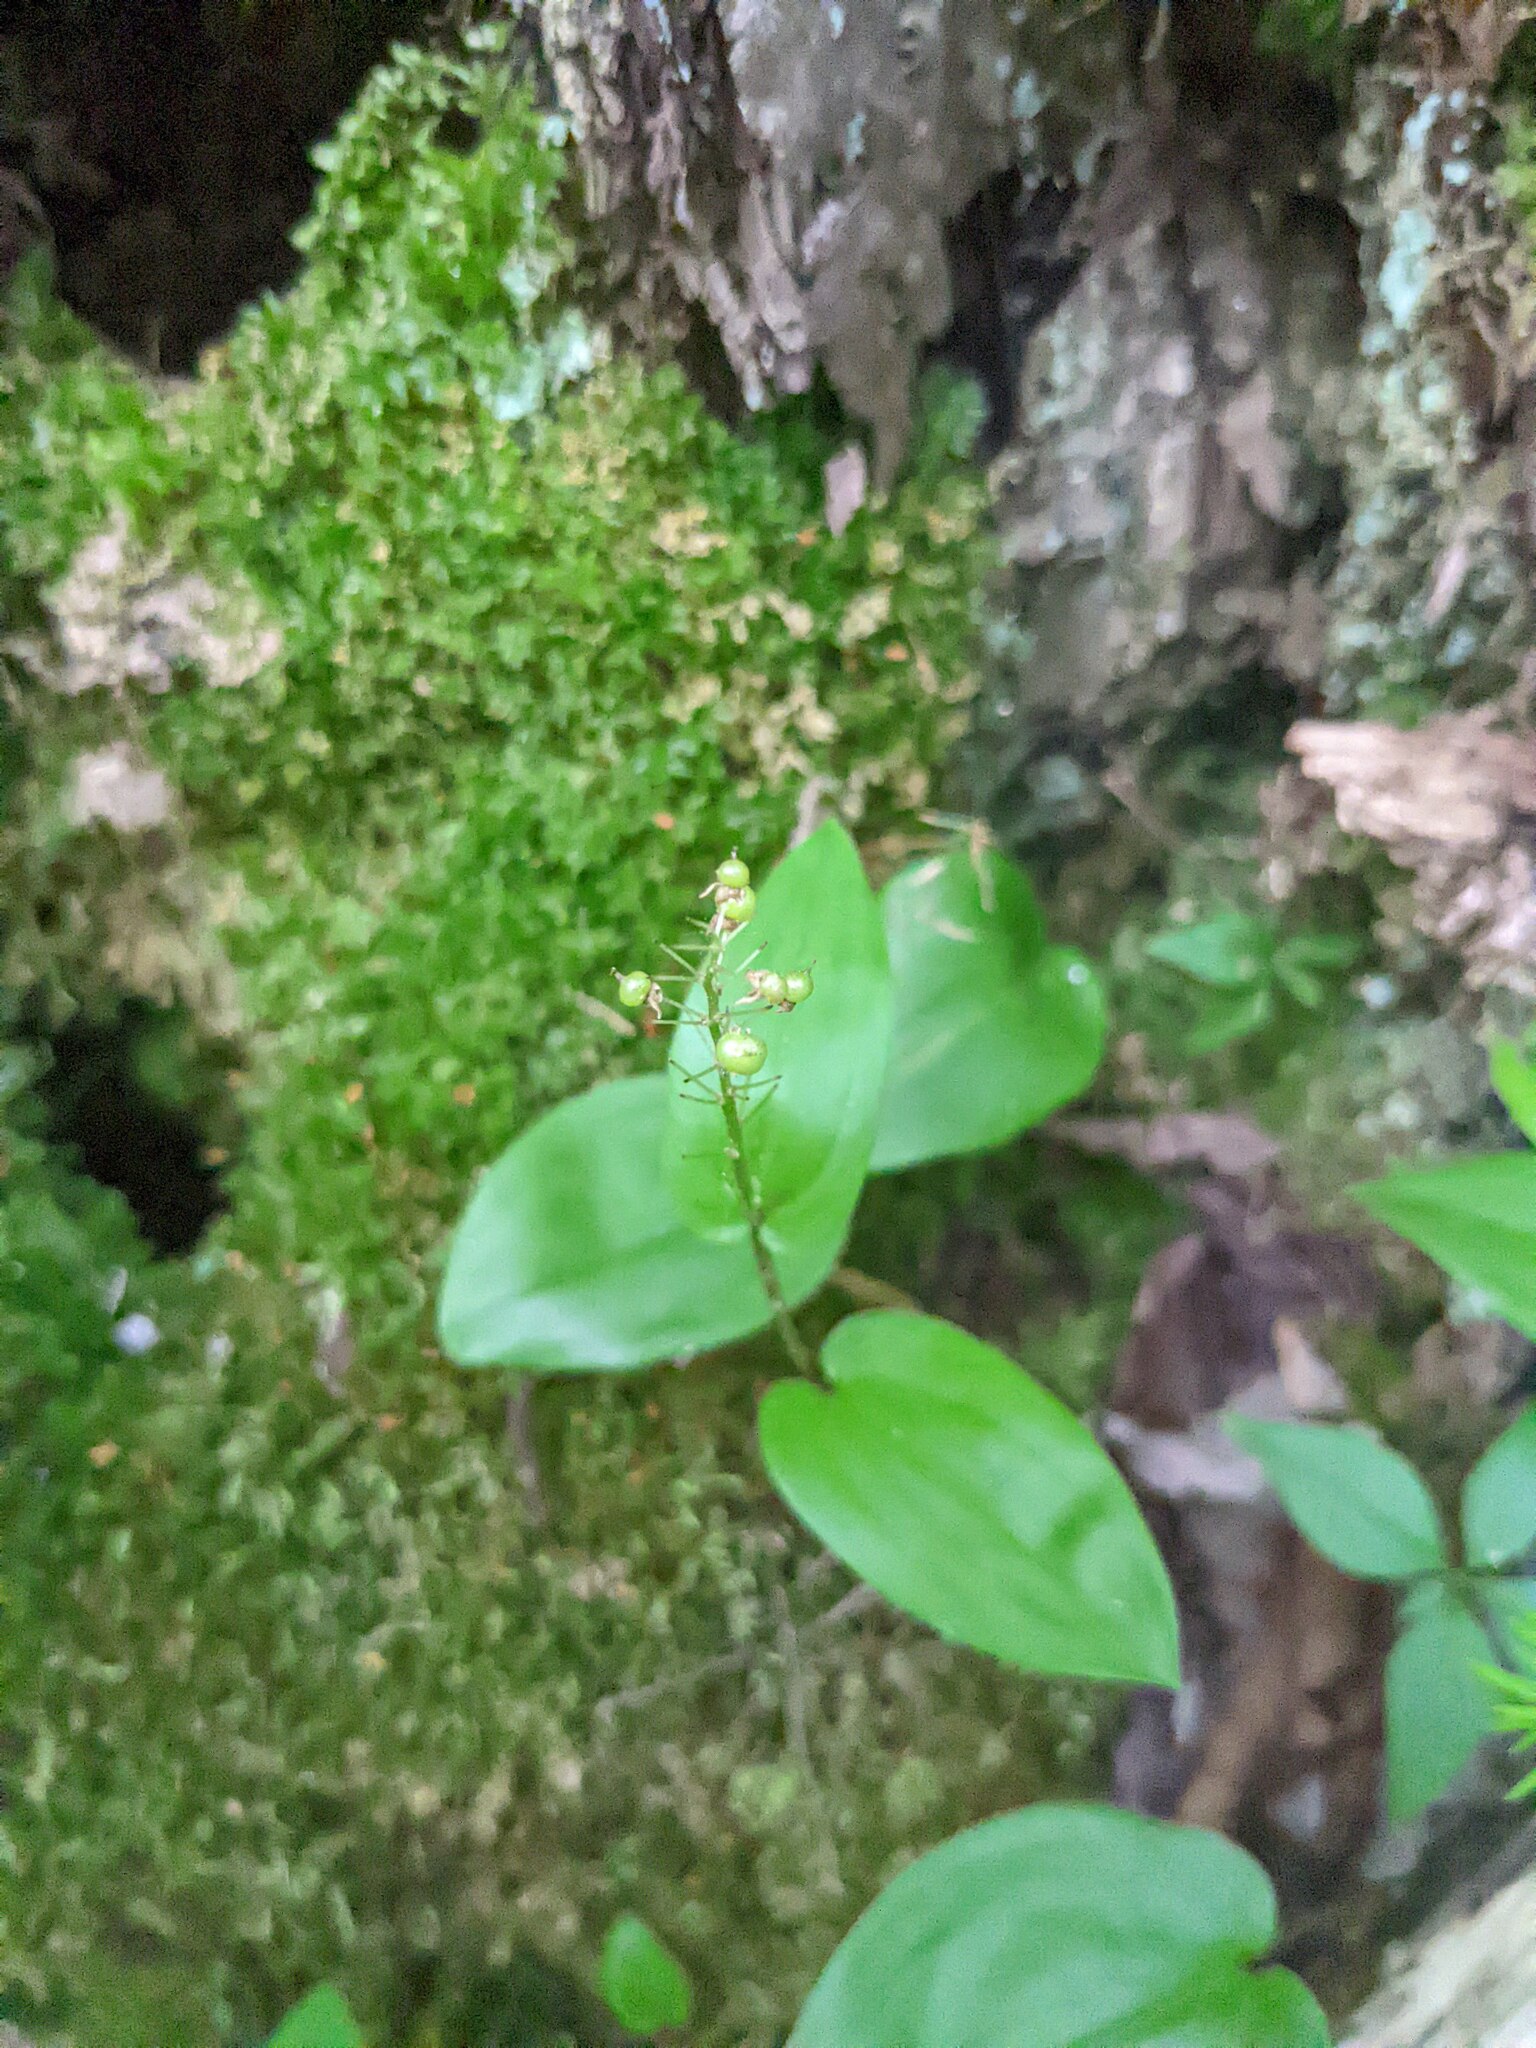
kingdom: Plantae
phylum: Tracheophyta
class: Liliopsida
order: Asparagales
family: Asparagaceae
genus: Maianthemum
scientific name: Maianthemum canadense
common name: False lily-of-the-valley
